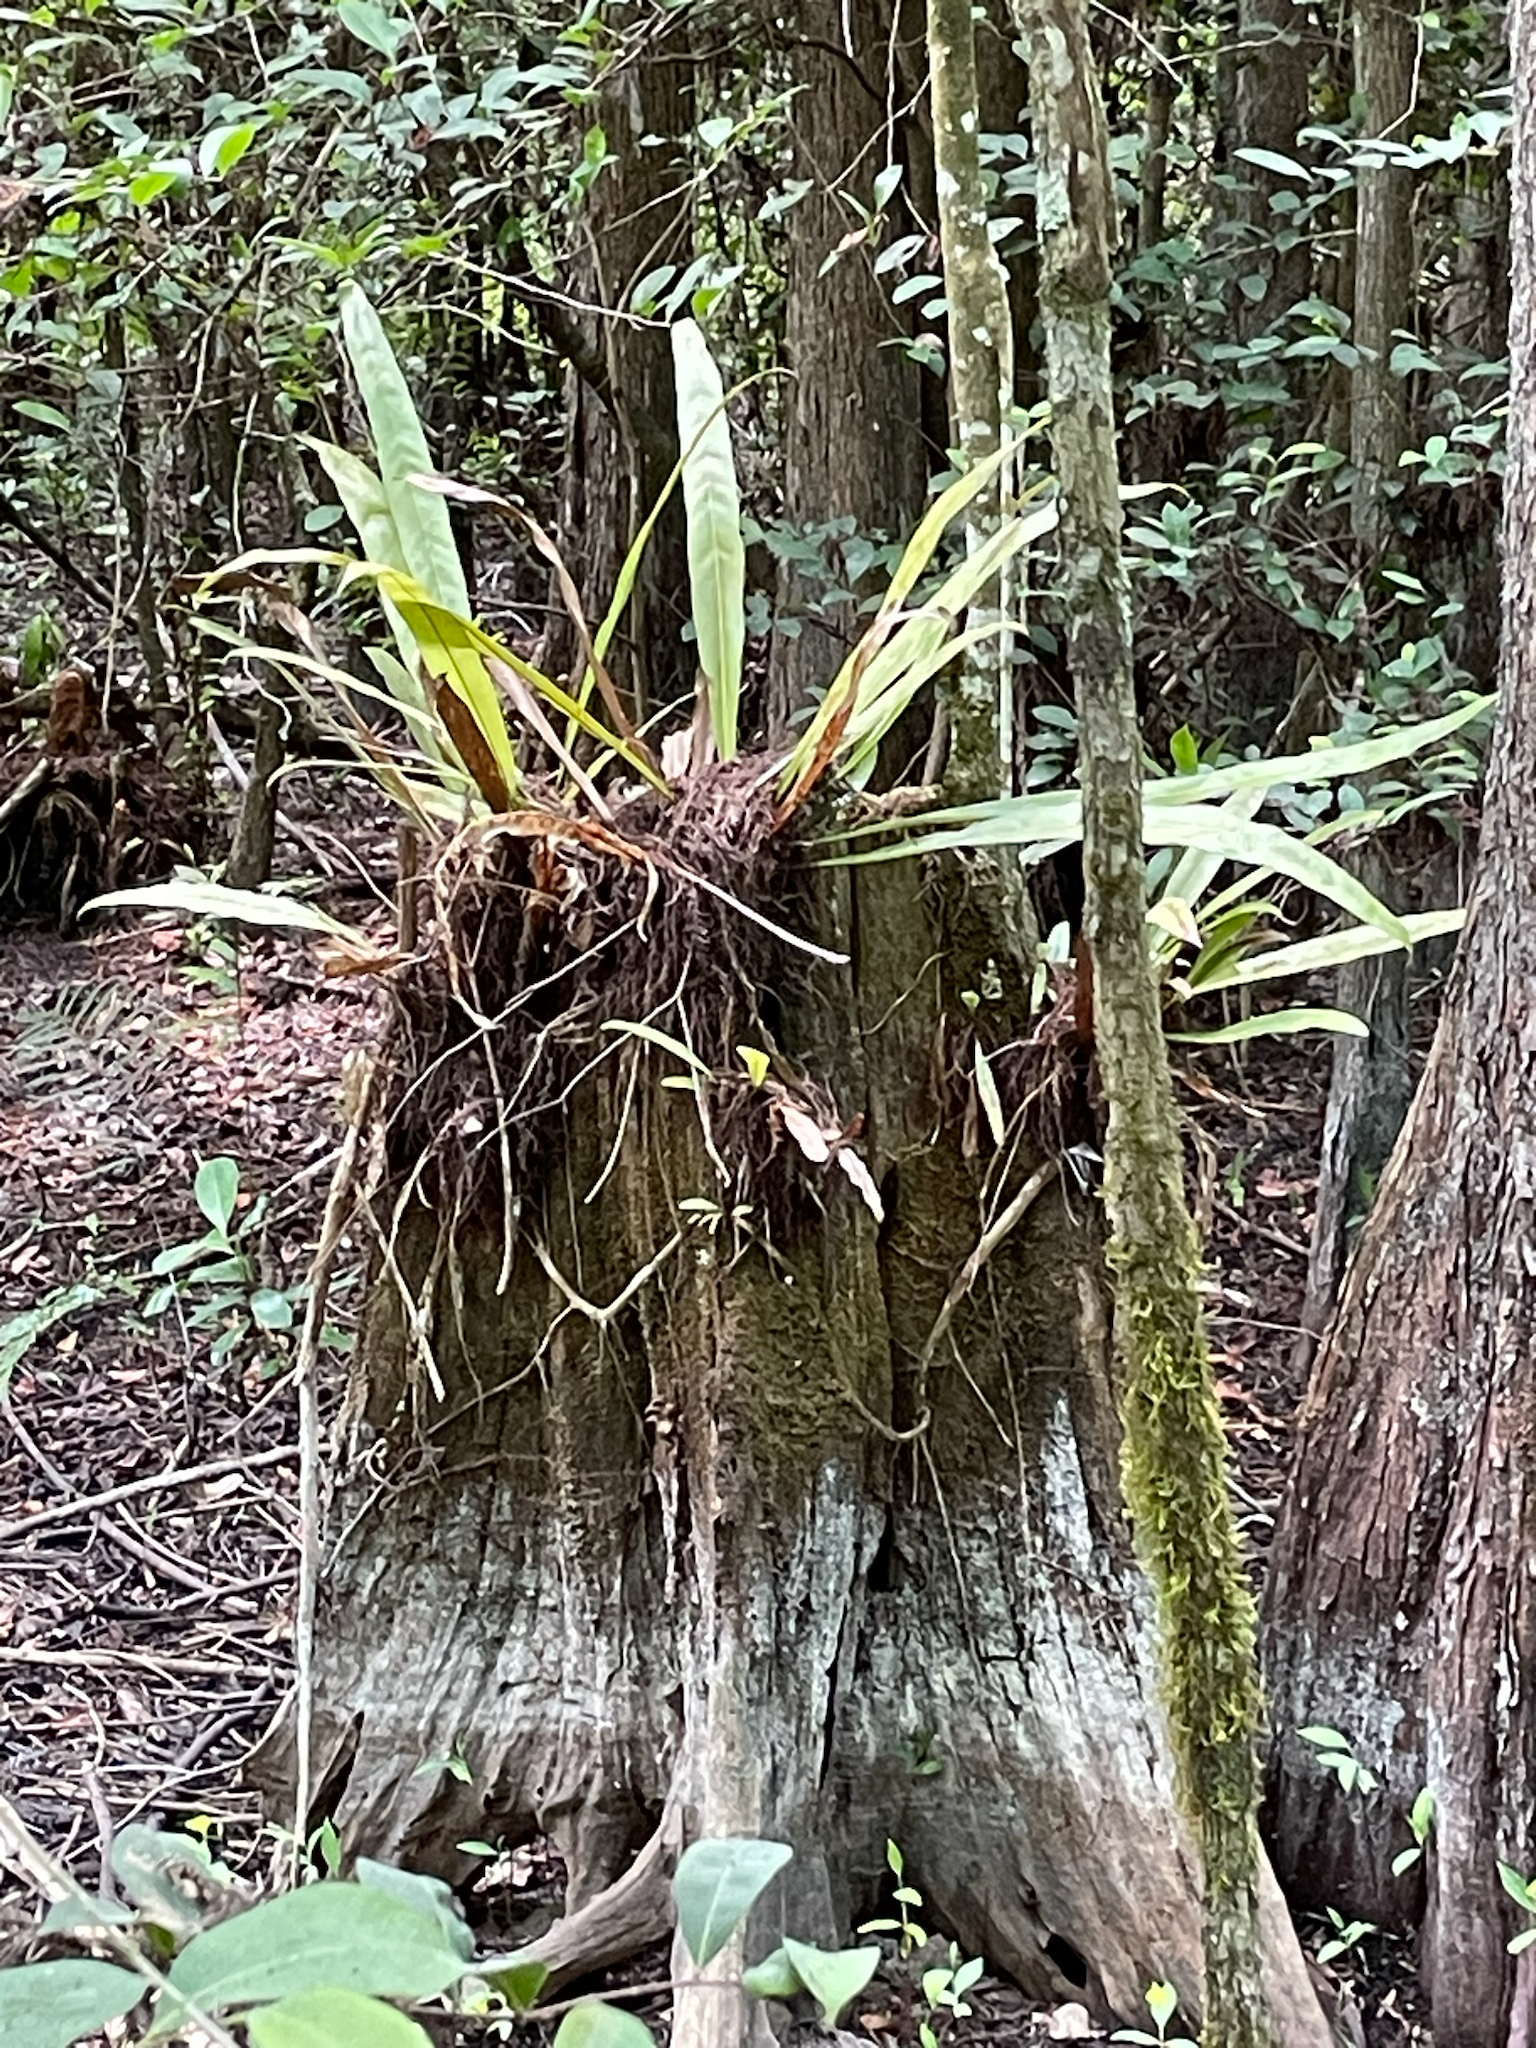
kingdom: Plantae
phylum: Tracheophyta
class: Polypodiopsida
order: Polypodiales
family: Polypodiaceae
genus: Campyloneurum
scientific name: Campyloneurum phyllitidis
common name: Cow-tongue fern
